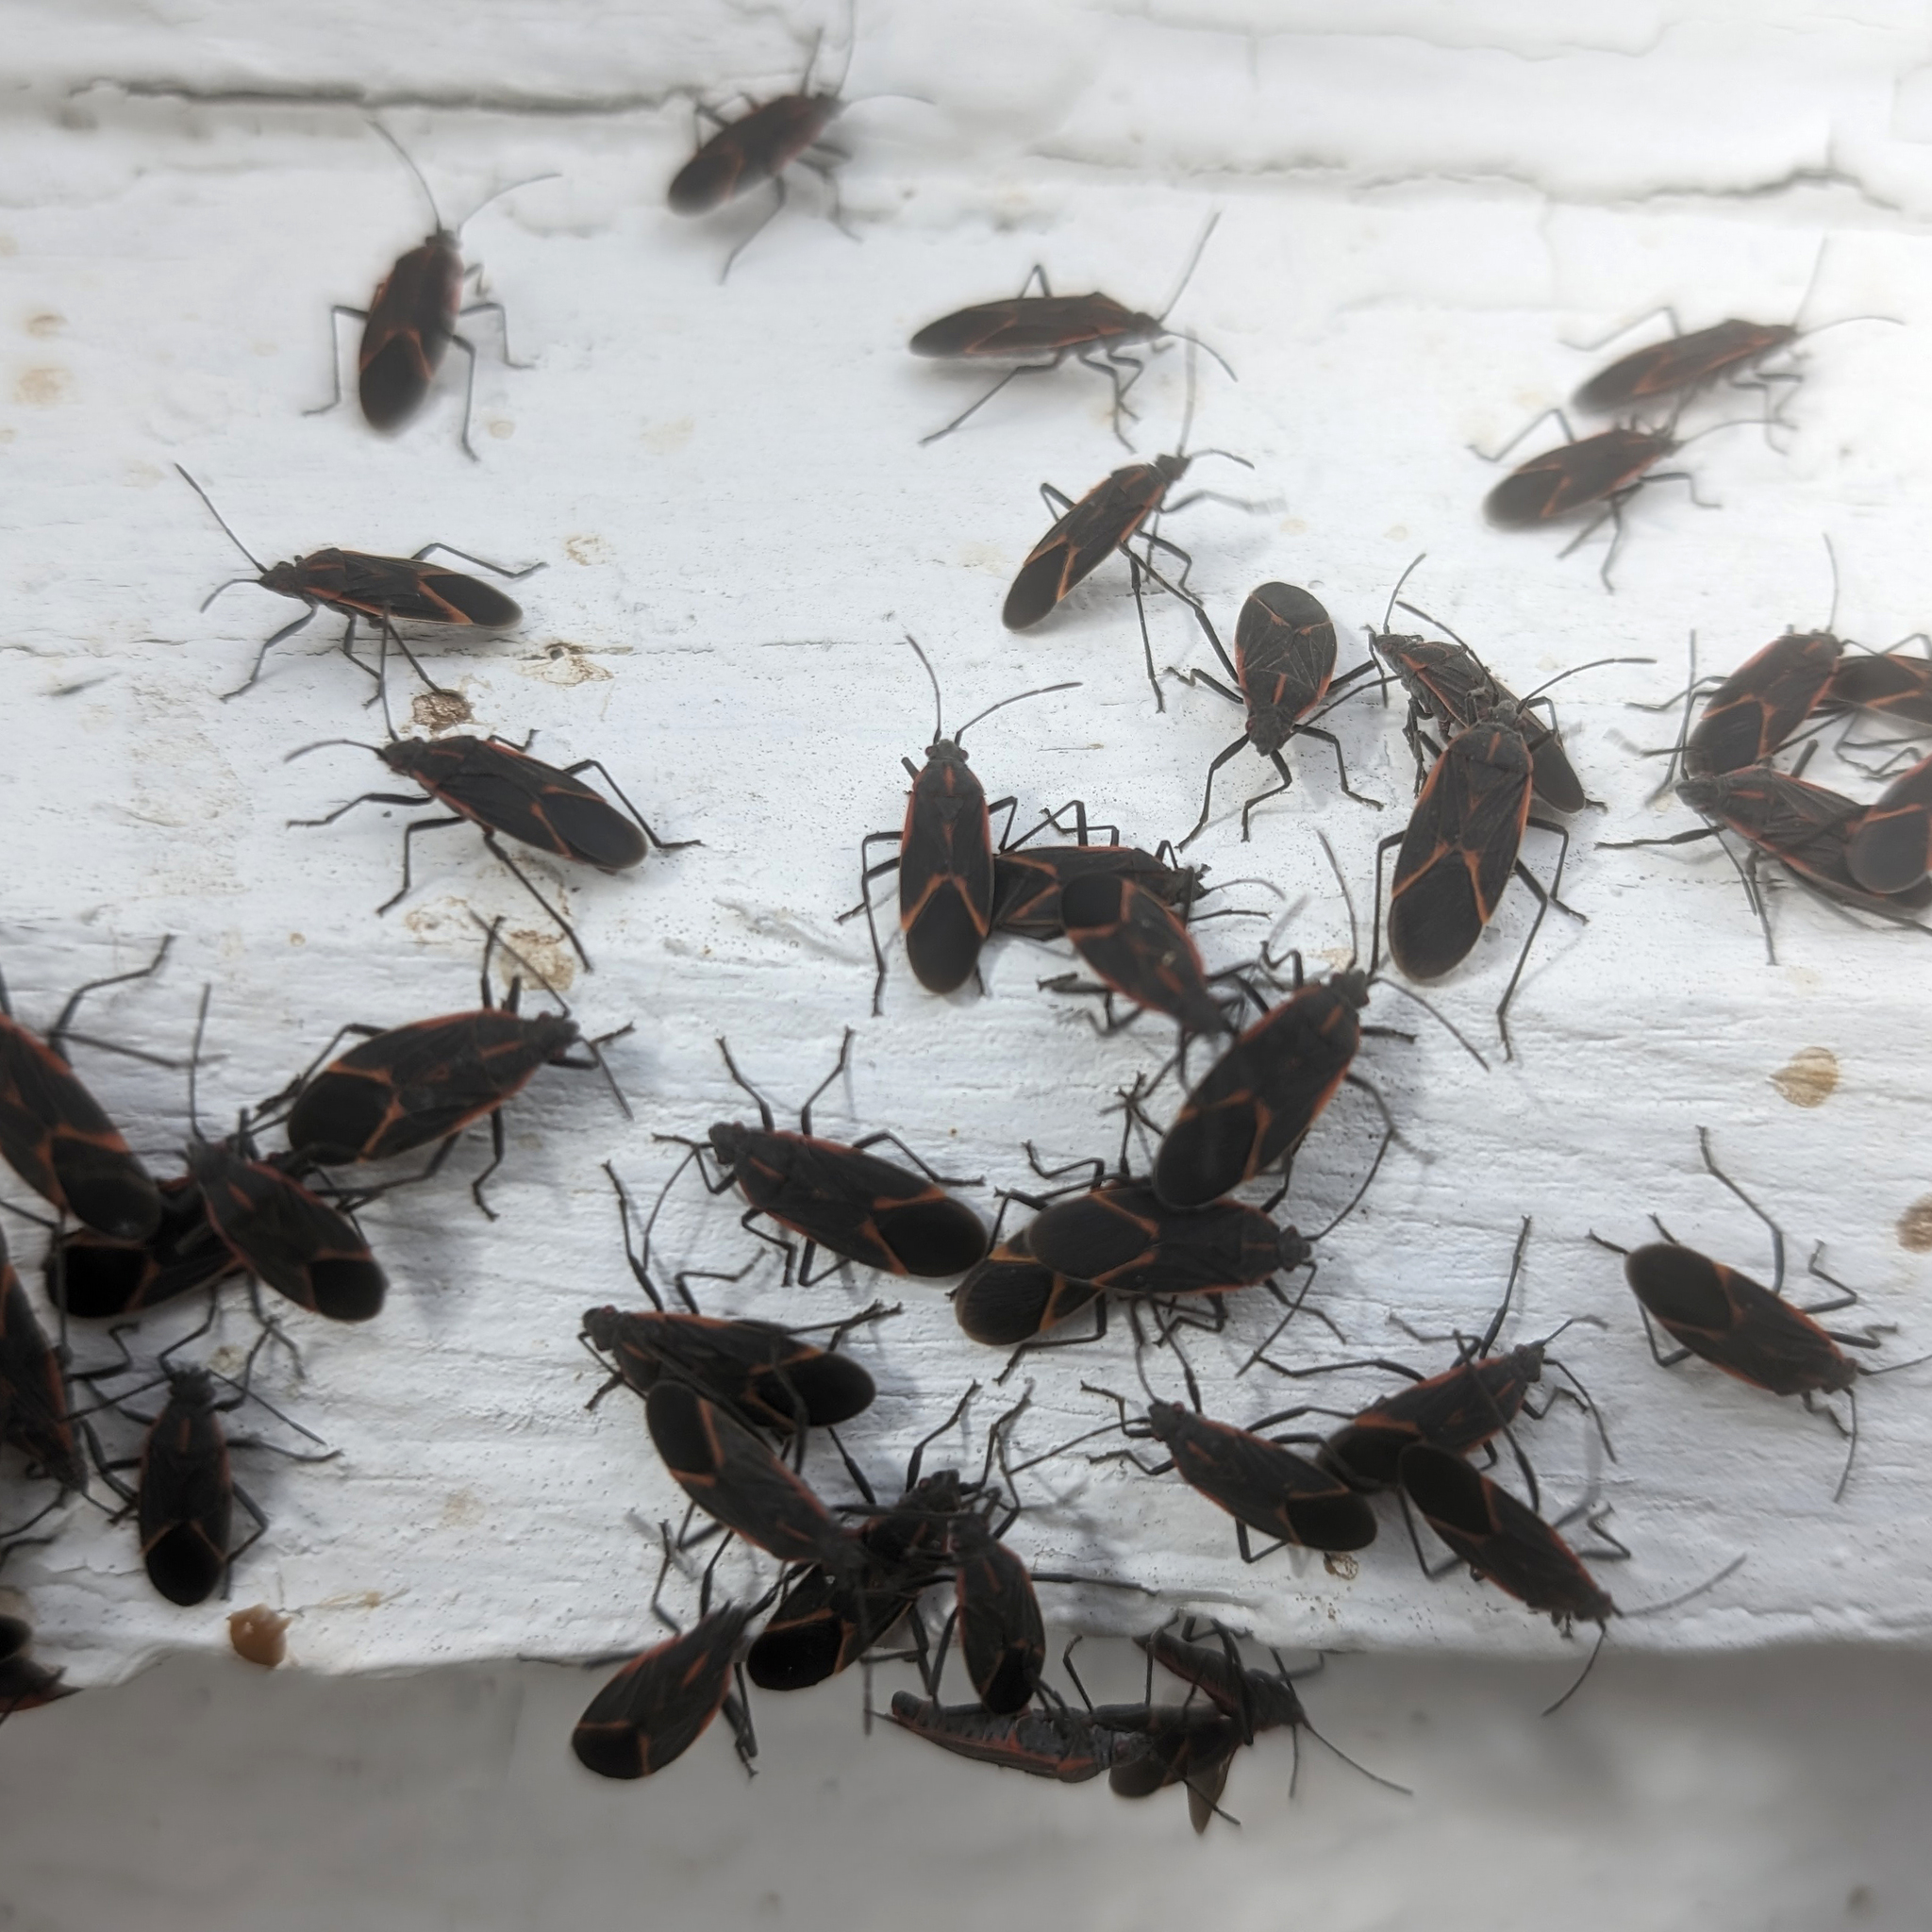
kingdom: Animalia
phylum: Arthropoda
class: Insecta
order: Hemiptera
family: Rhopalidae
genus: Boisea
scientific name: Boisea trivittata
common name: Boxelder bug
